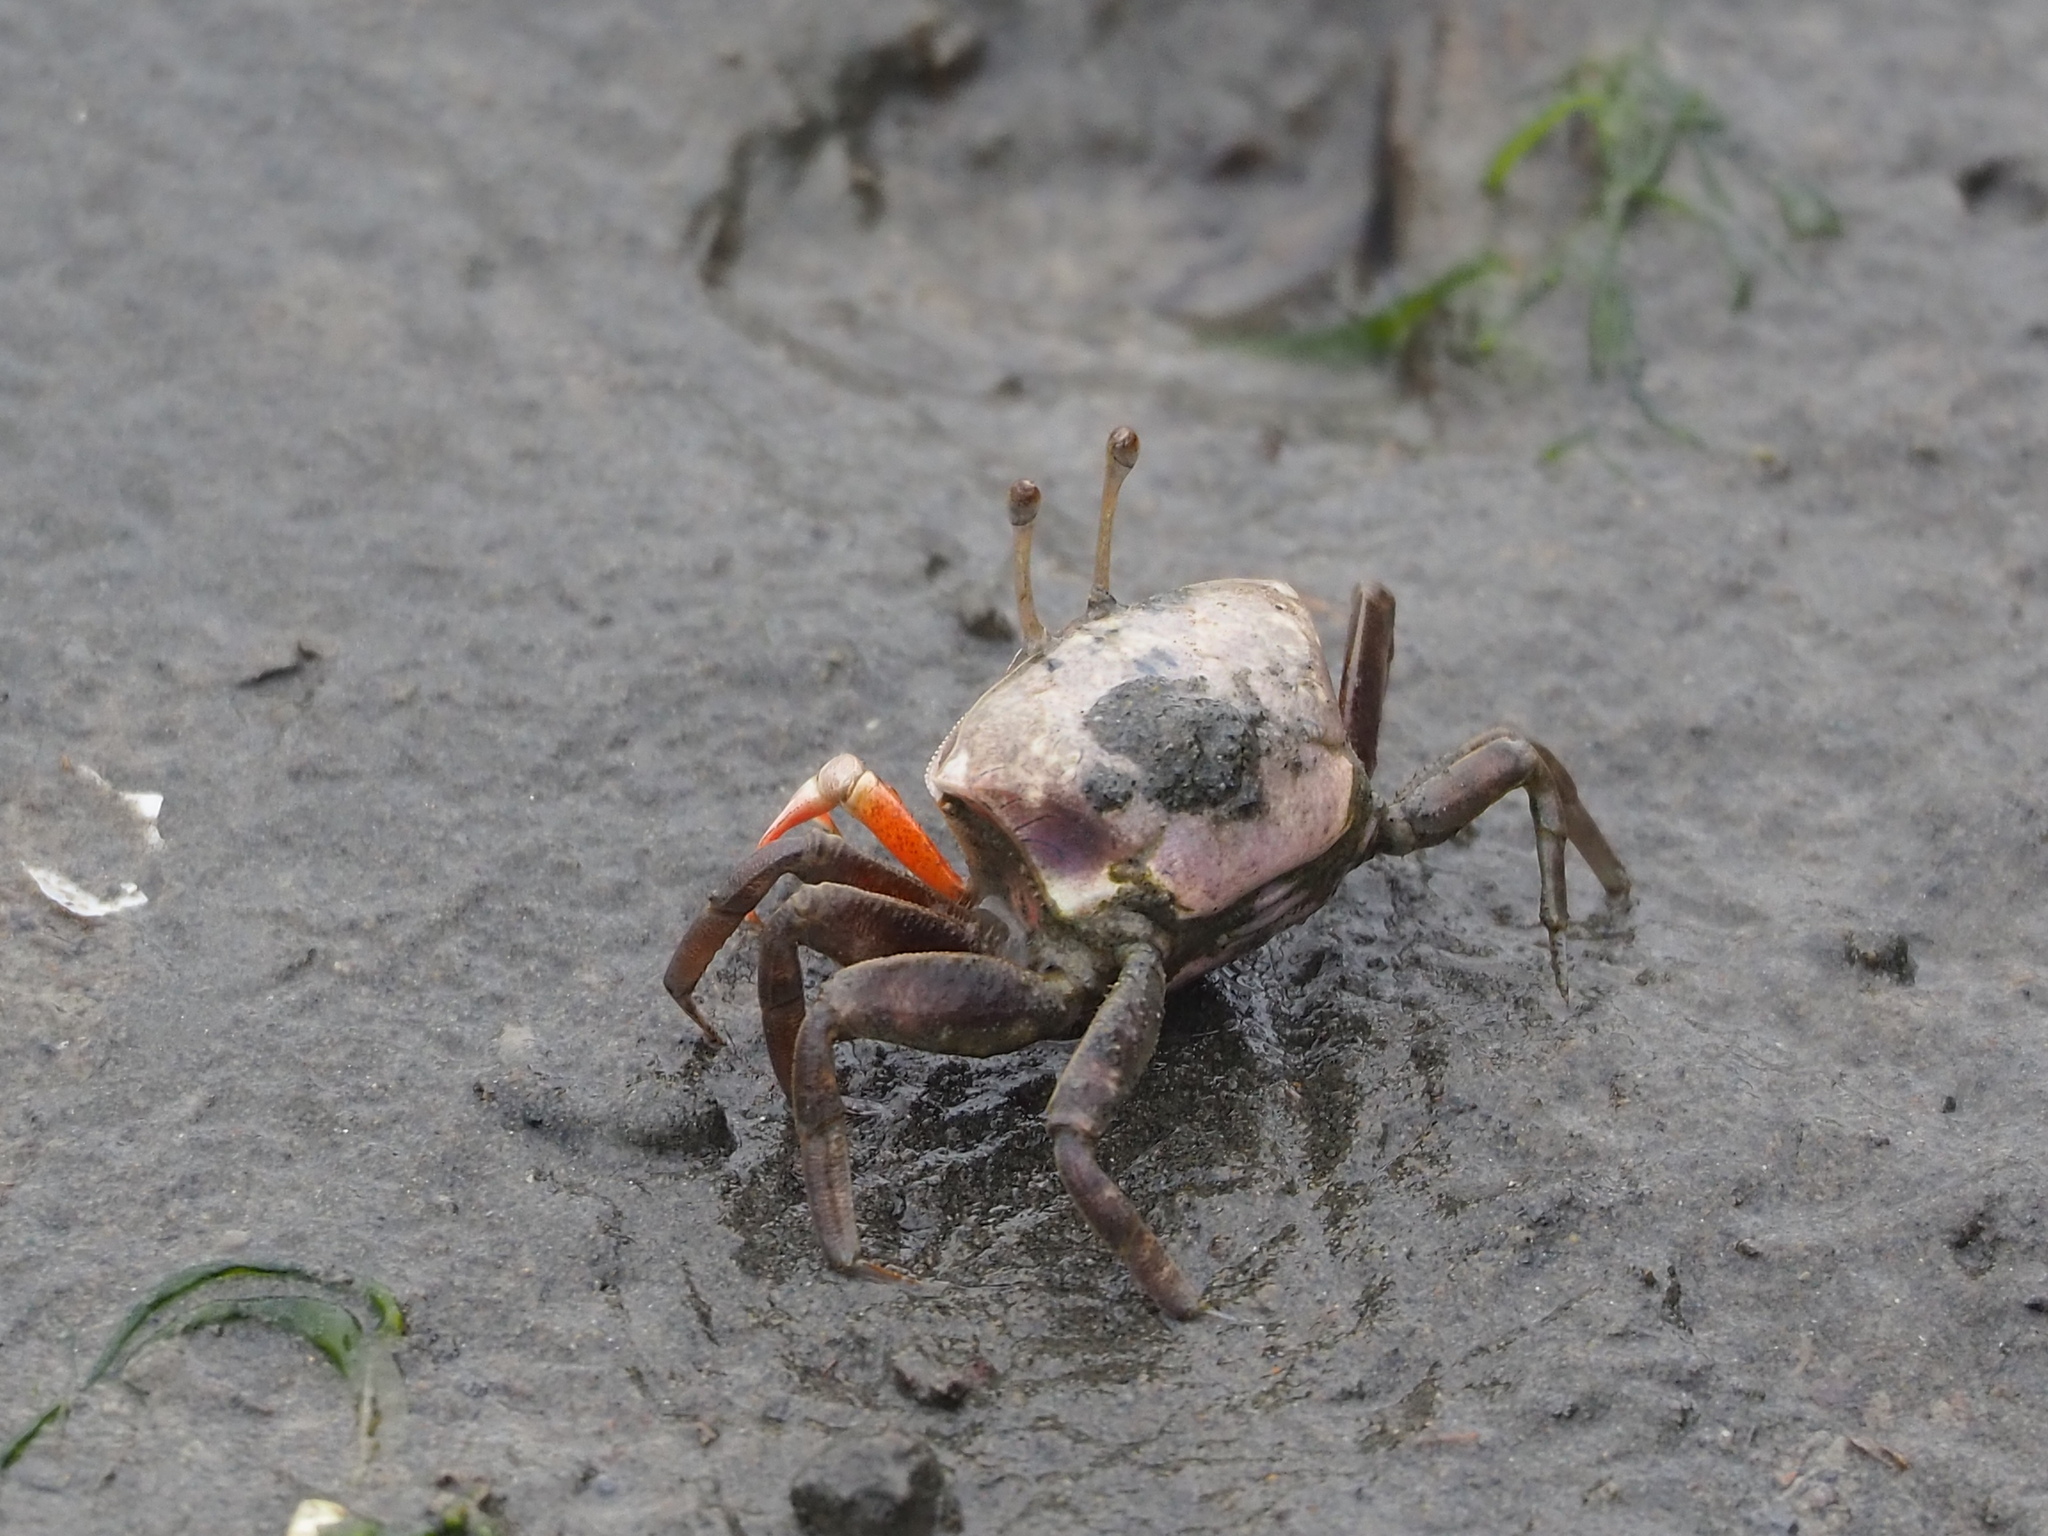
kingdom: Animalia
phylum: Arthropoda
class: Malacostraca
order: Decapoda
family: Ocypodidae
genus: Gelasimus
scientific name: Gelasimus borealis
